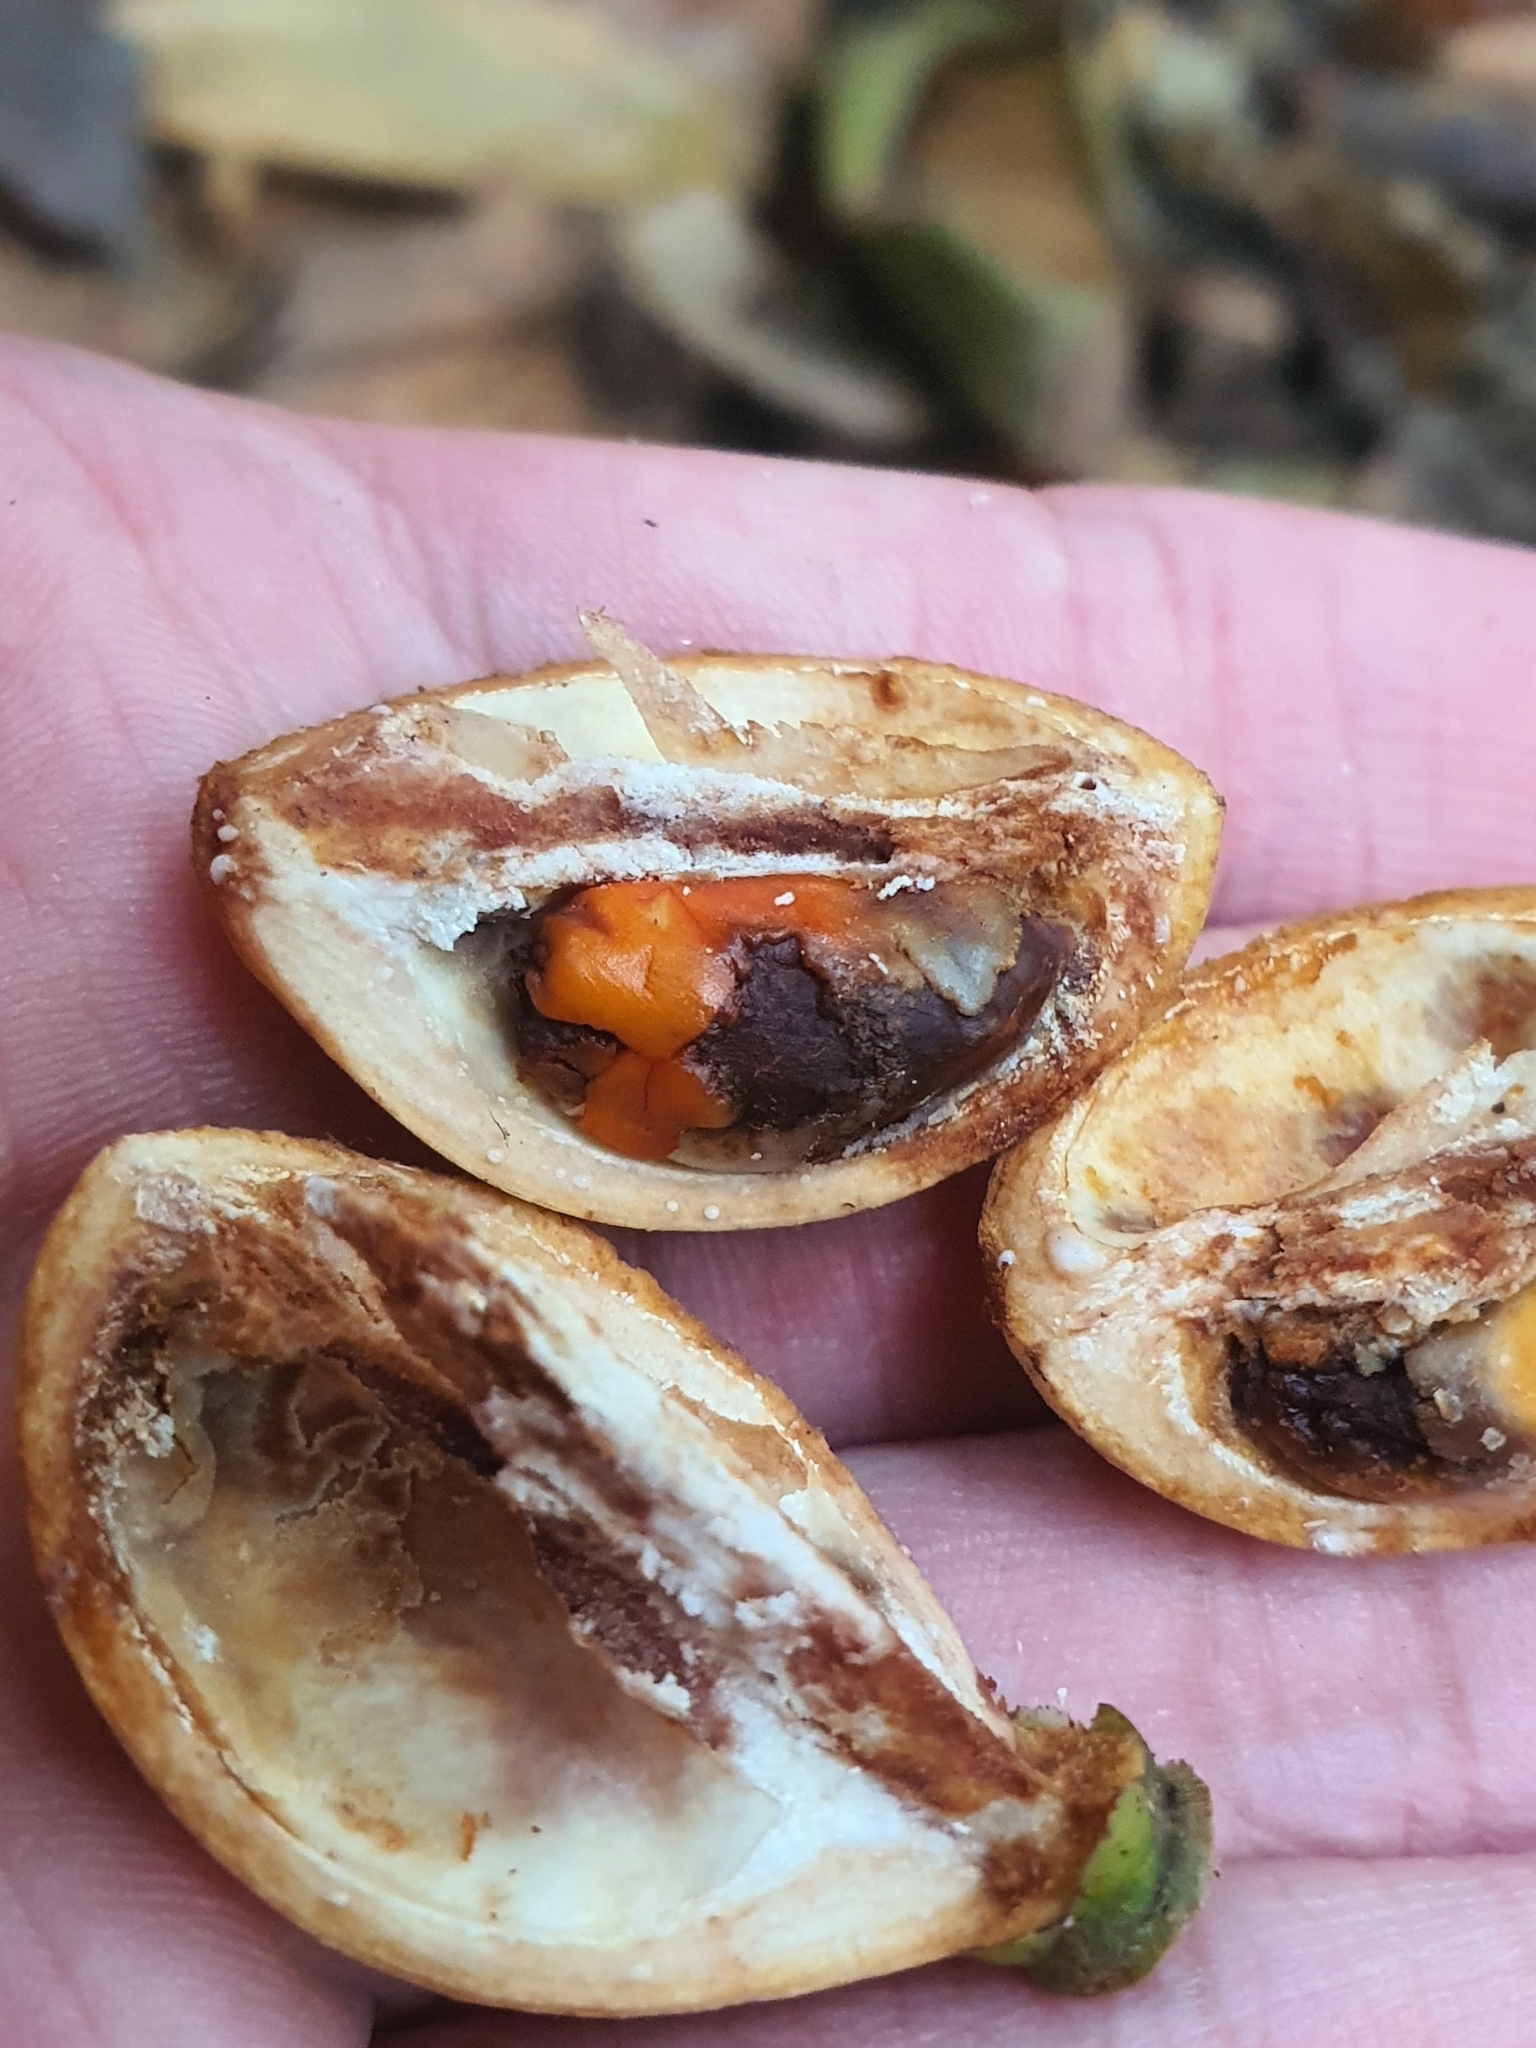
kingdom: Plantae
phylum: Tracheophyta
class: Magnoliopsida
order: Sapindales
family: Meliaceae
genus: Lansium
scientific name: Lansium domesticum
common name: Langsat
